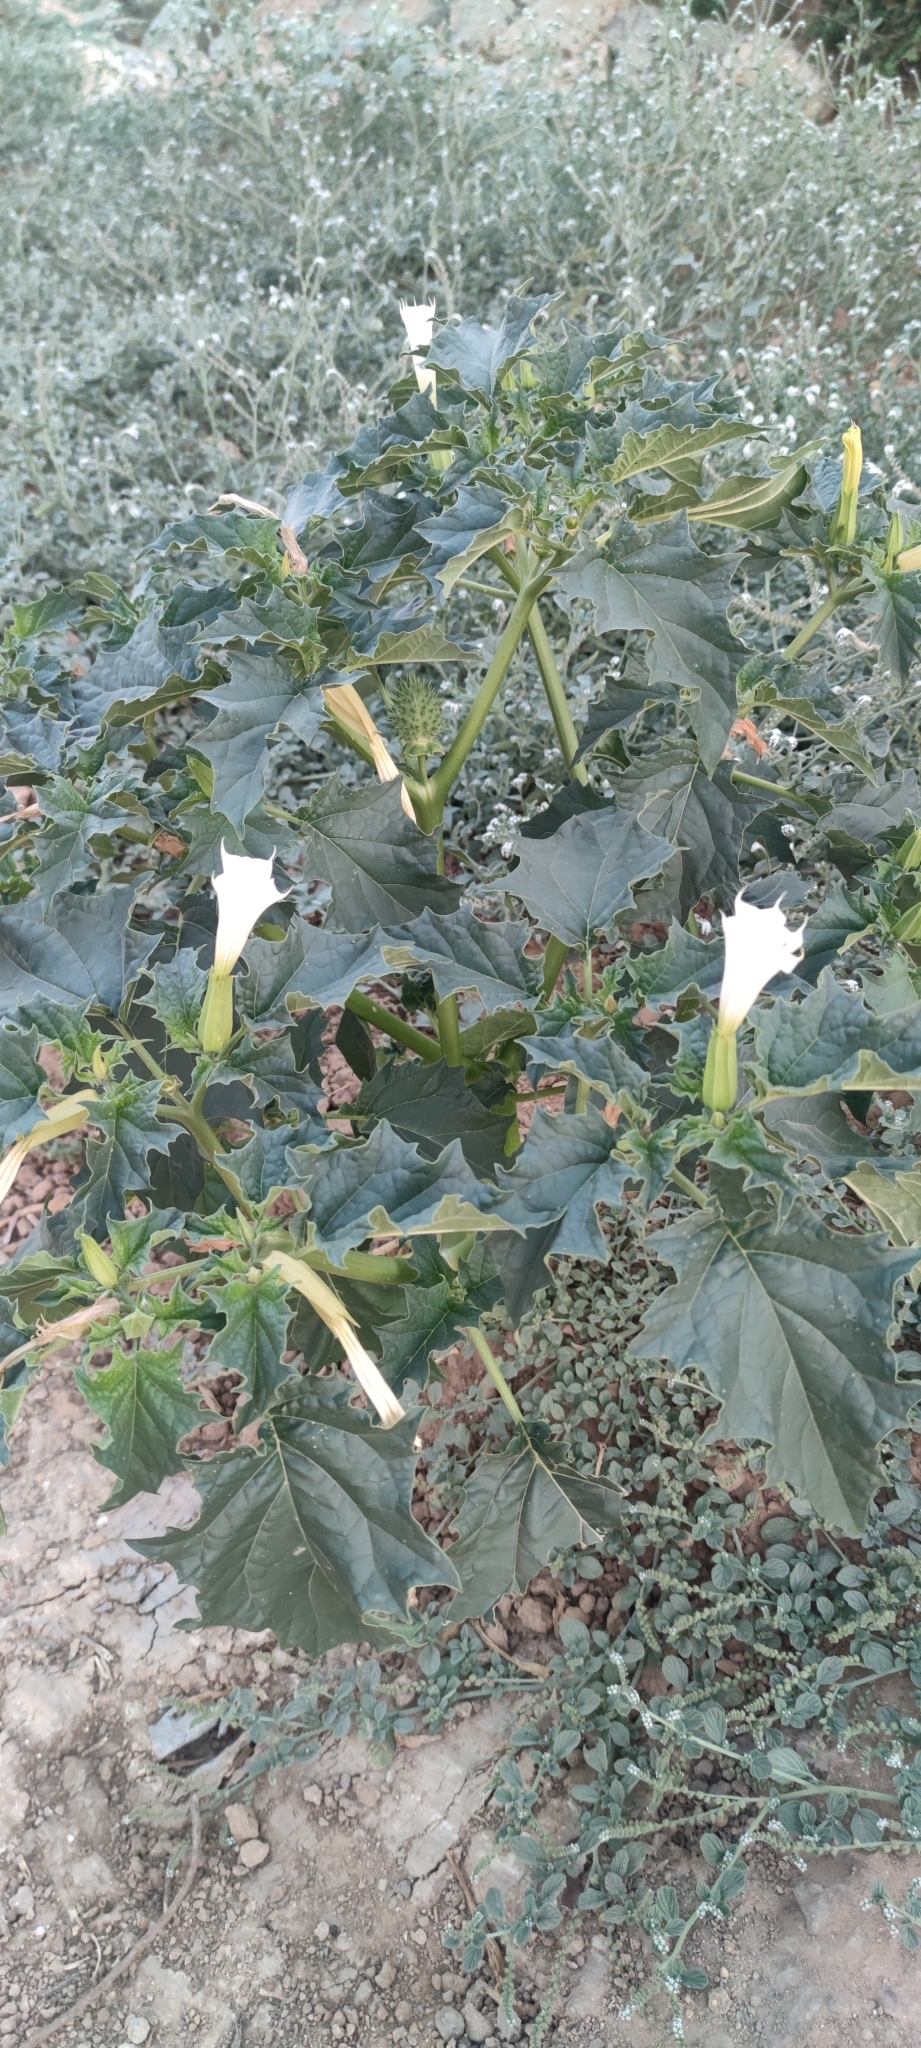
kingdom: Plantae
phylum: Tracheophyta
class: Magnoliopsida
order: Solanales
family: Solanaceae
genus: Datura
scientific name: Datura stramonium
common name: Thorn-apple
